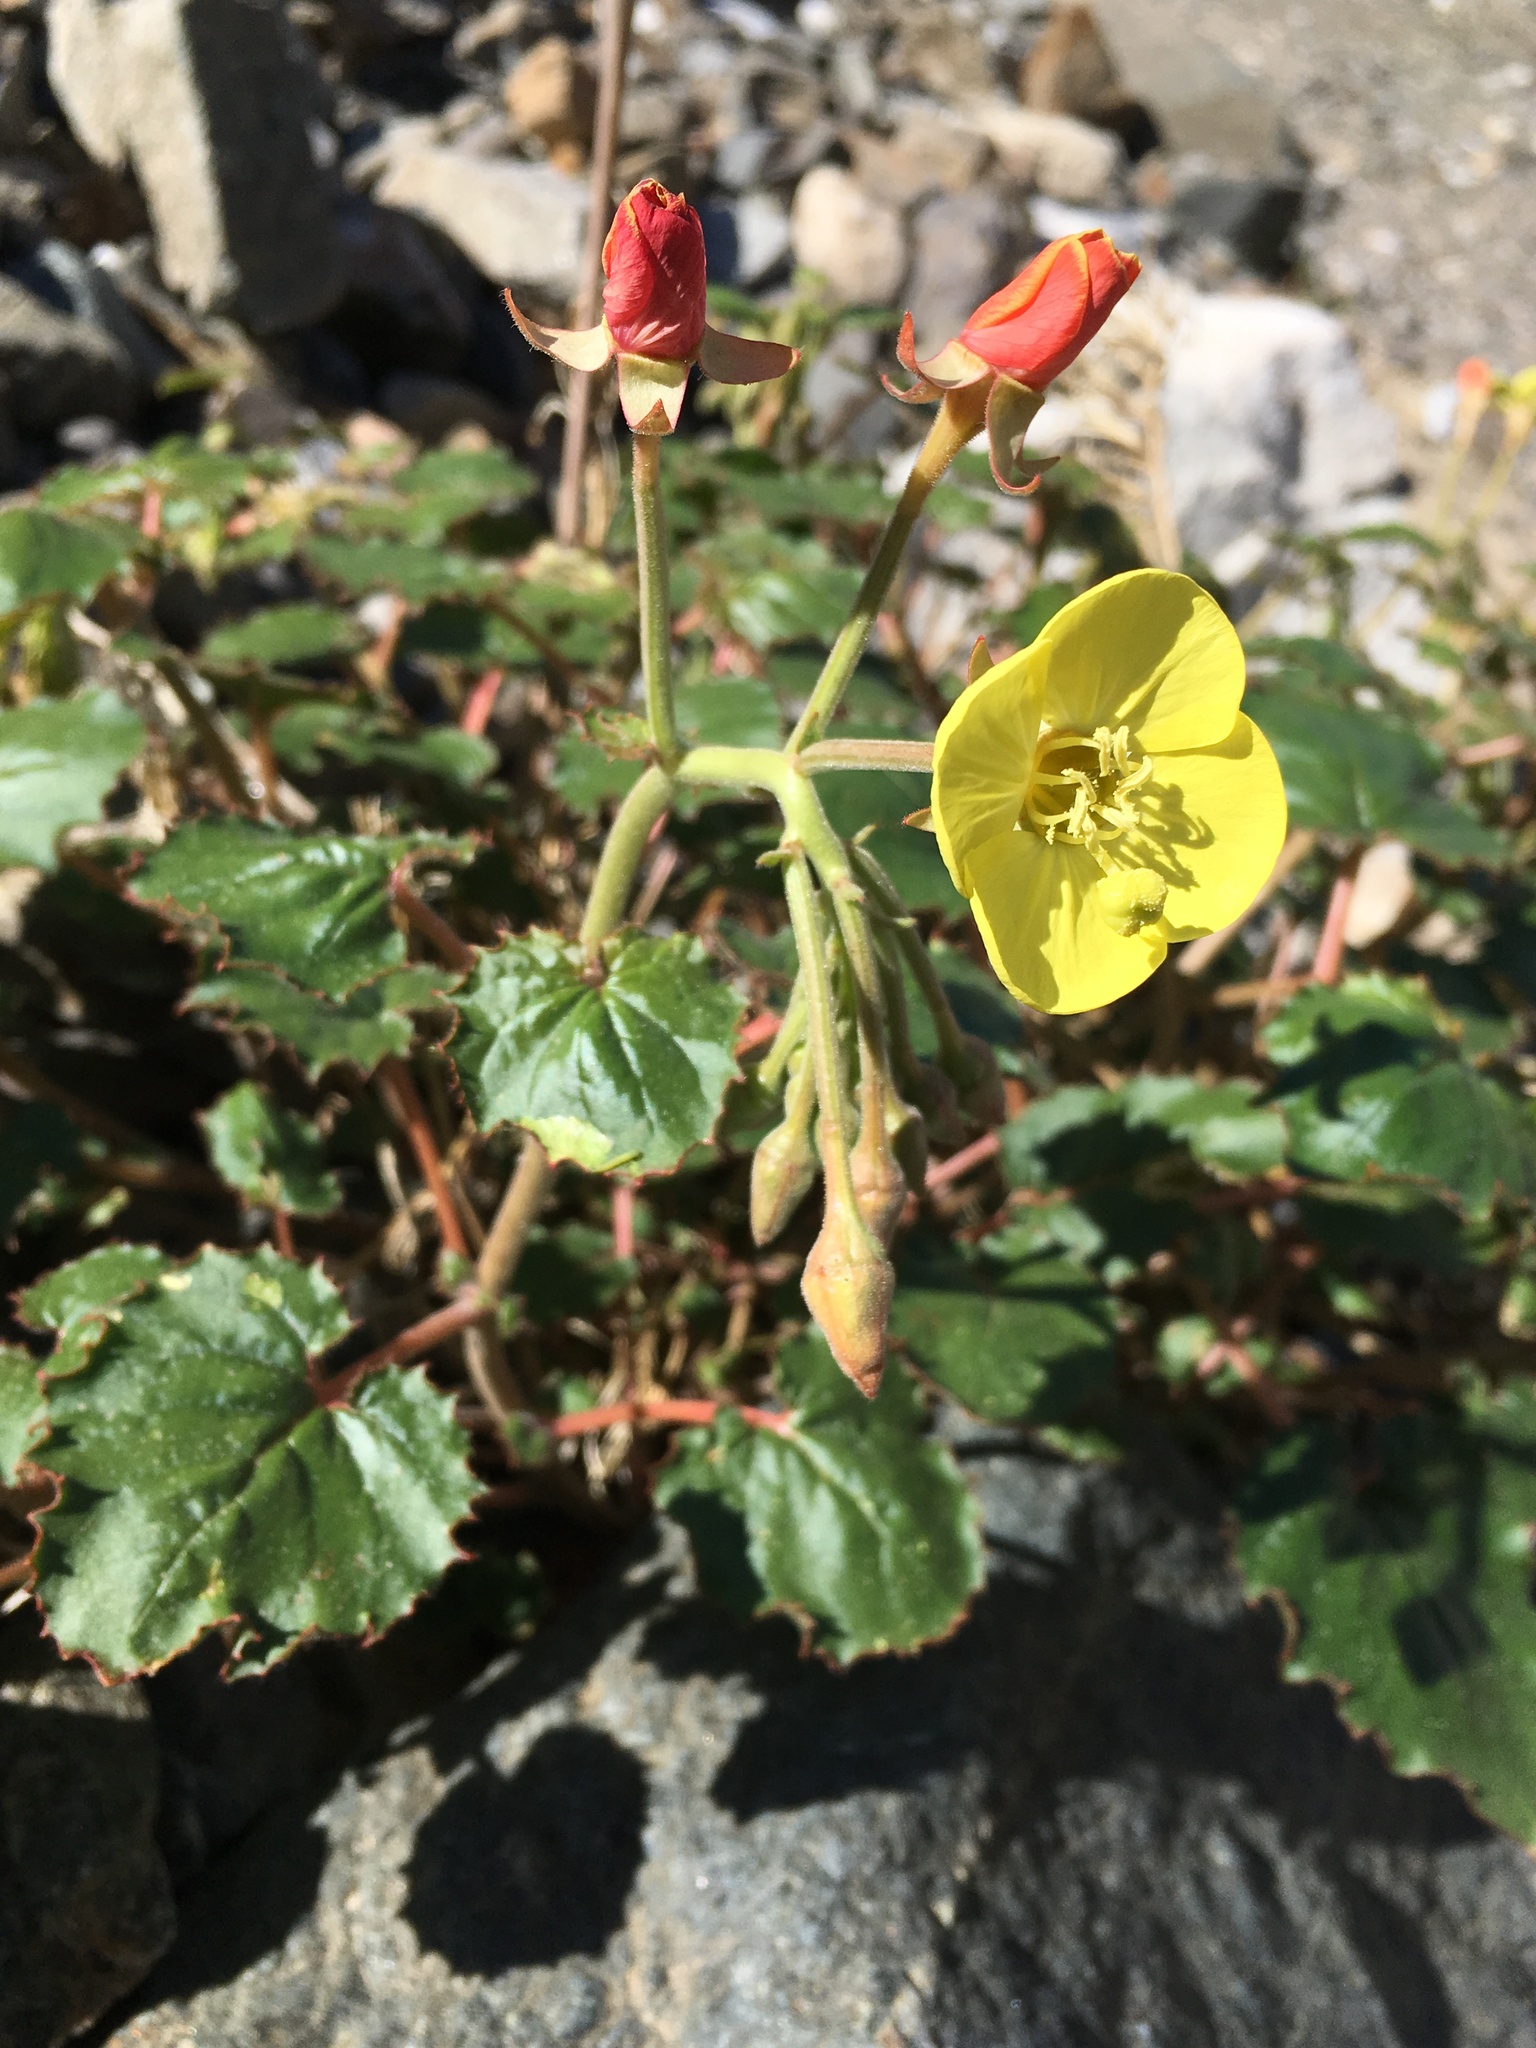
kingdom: Plantae
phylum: Tracheophyta
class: Magnoliopsida
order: Myrtales
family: Onagraceae
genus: Chylismia
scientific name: Chylismia cardiophylla
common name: Heartleaf suncup
